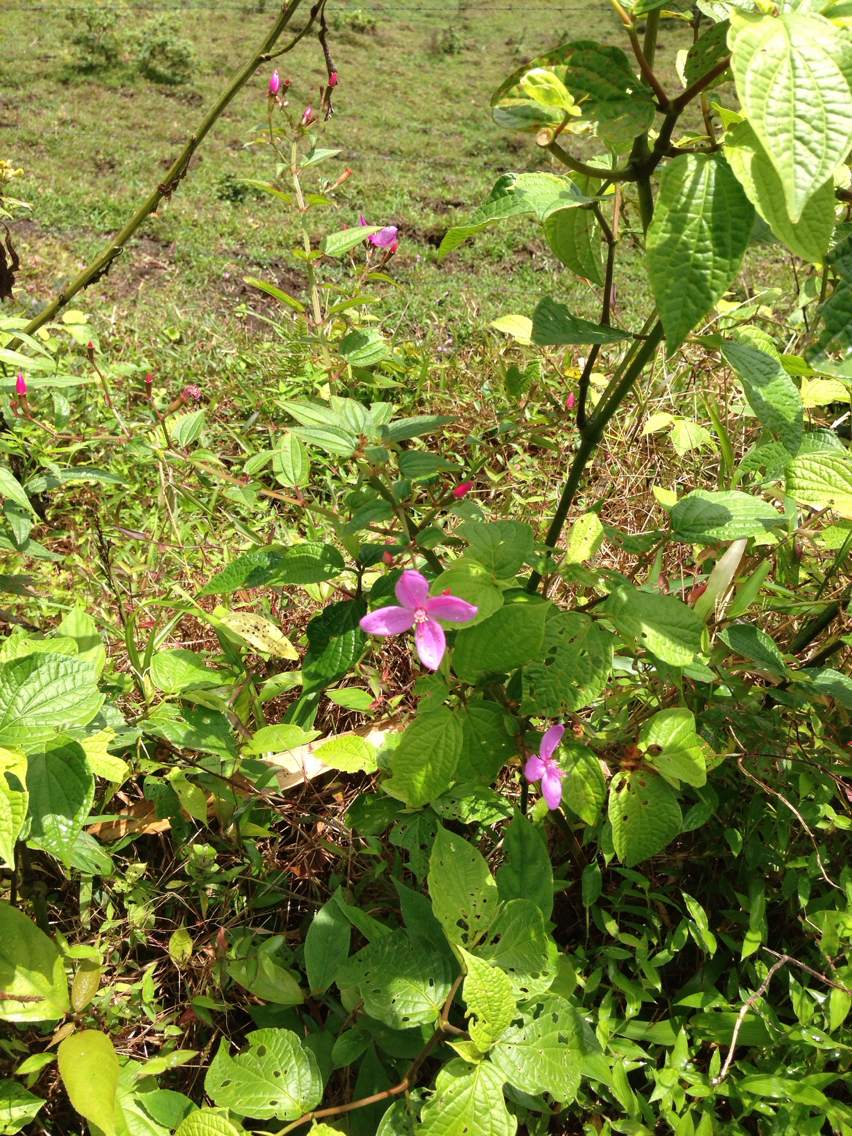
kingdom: Plantae
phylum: Tracheophyta
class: Magnoliopsida
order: Myrtales
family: Melastomataceae
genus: Arthrostemma
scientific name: Arthrostemma ciliatum
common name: Everblooming eavender
